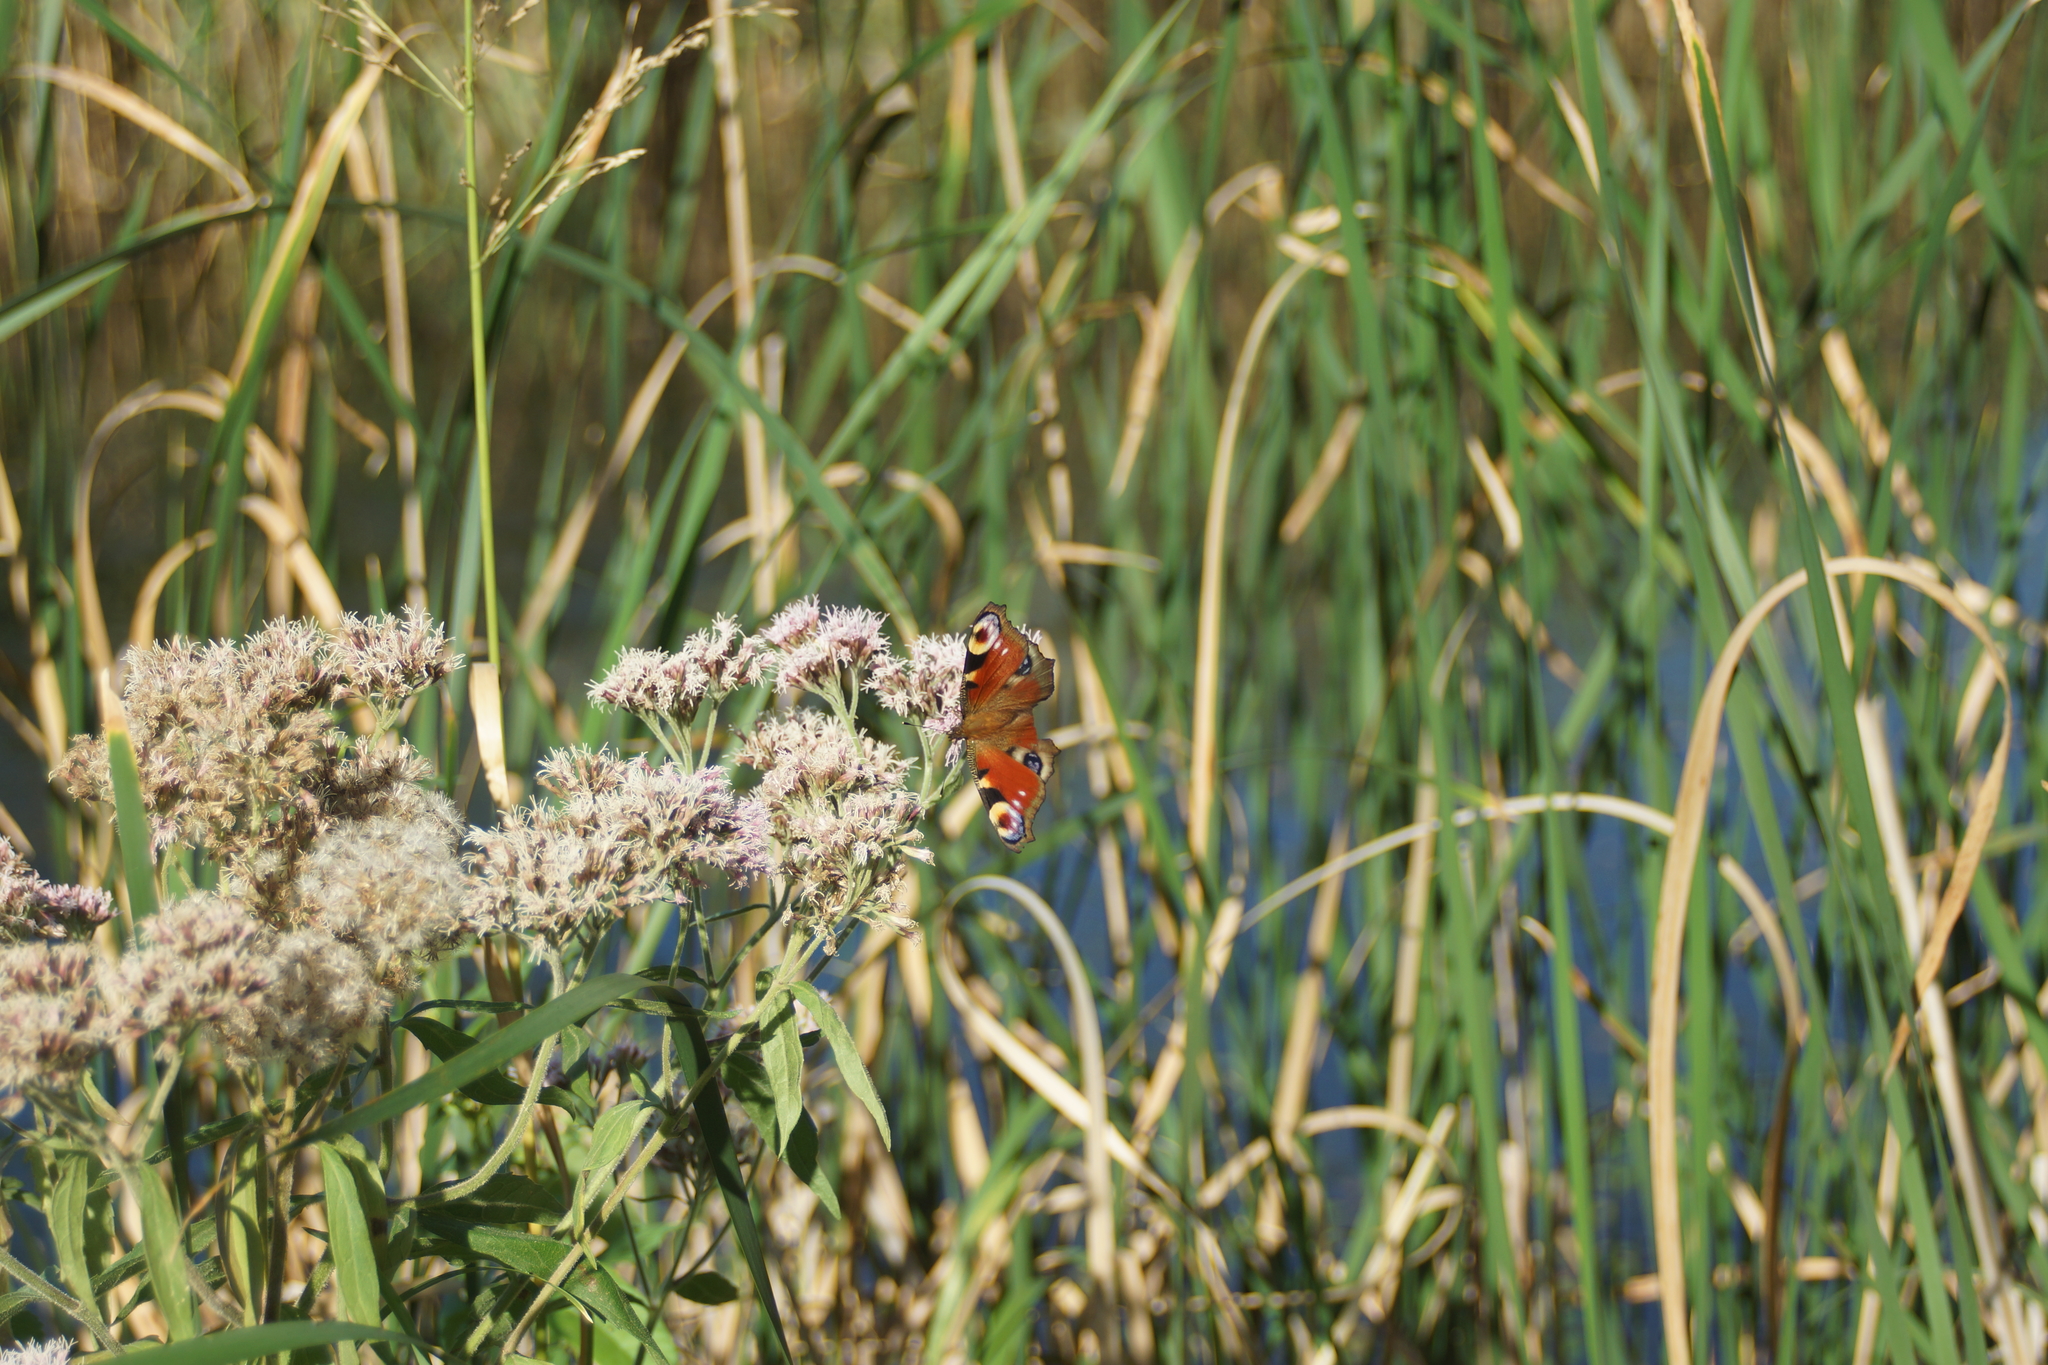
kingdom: Animalia
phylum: Arthropoda
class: Insecta
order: Lepidoptera
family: Nymphalidae
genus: Aglais
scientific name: Aglais io
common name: Peacock
